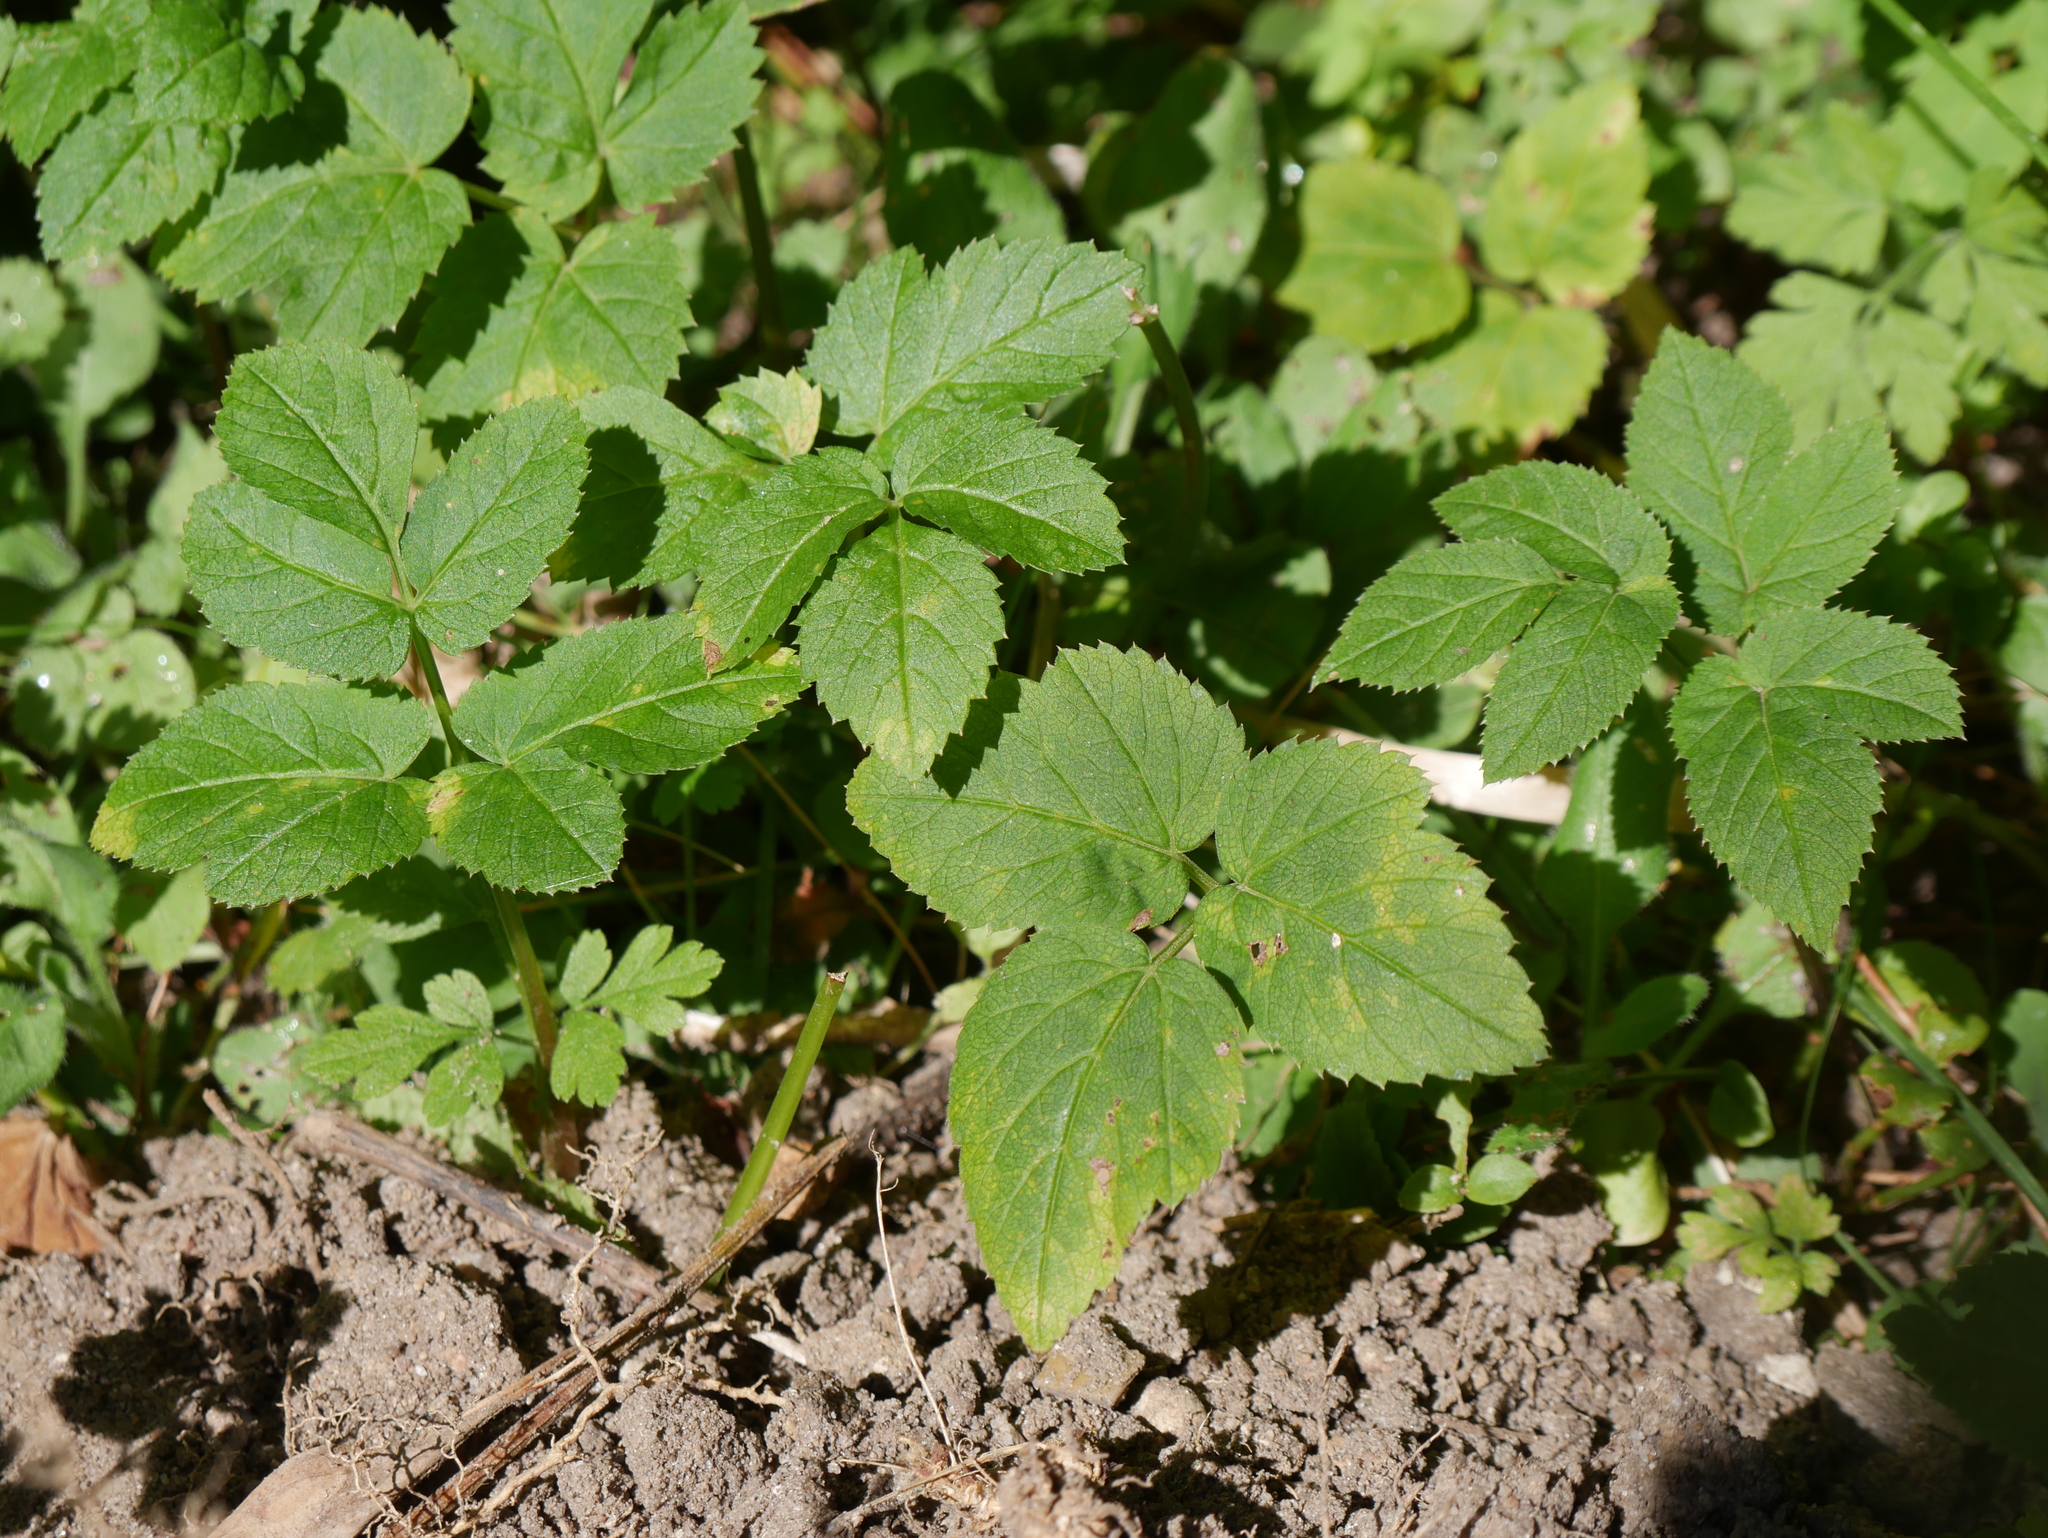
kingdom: Plantae
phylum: Tracheophyta
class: Magnoliopsida
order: Apiales
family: Apiaceae
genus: Aegopodium
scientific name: Aegopodium podagraria
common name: Ground-elder
